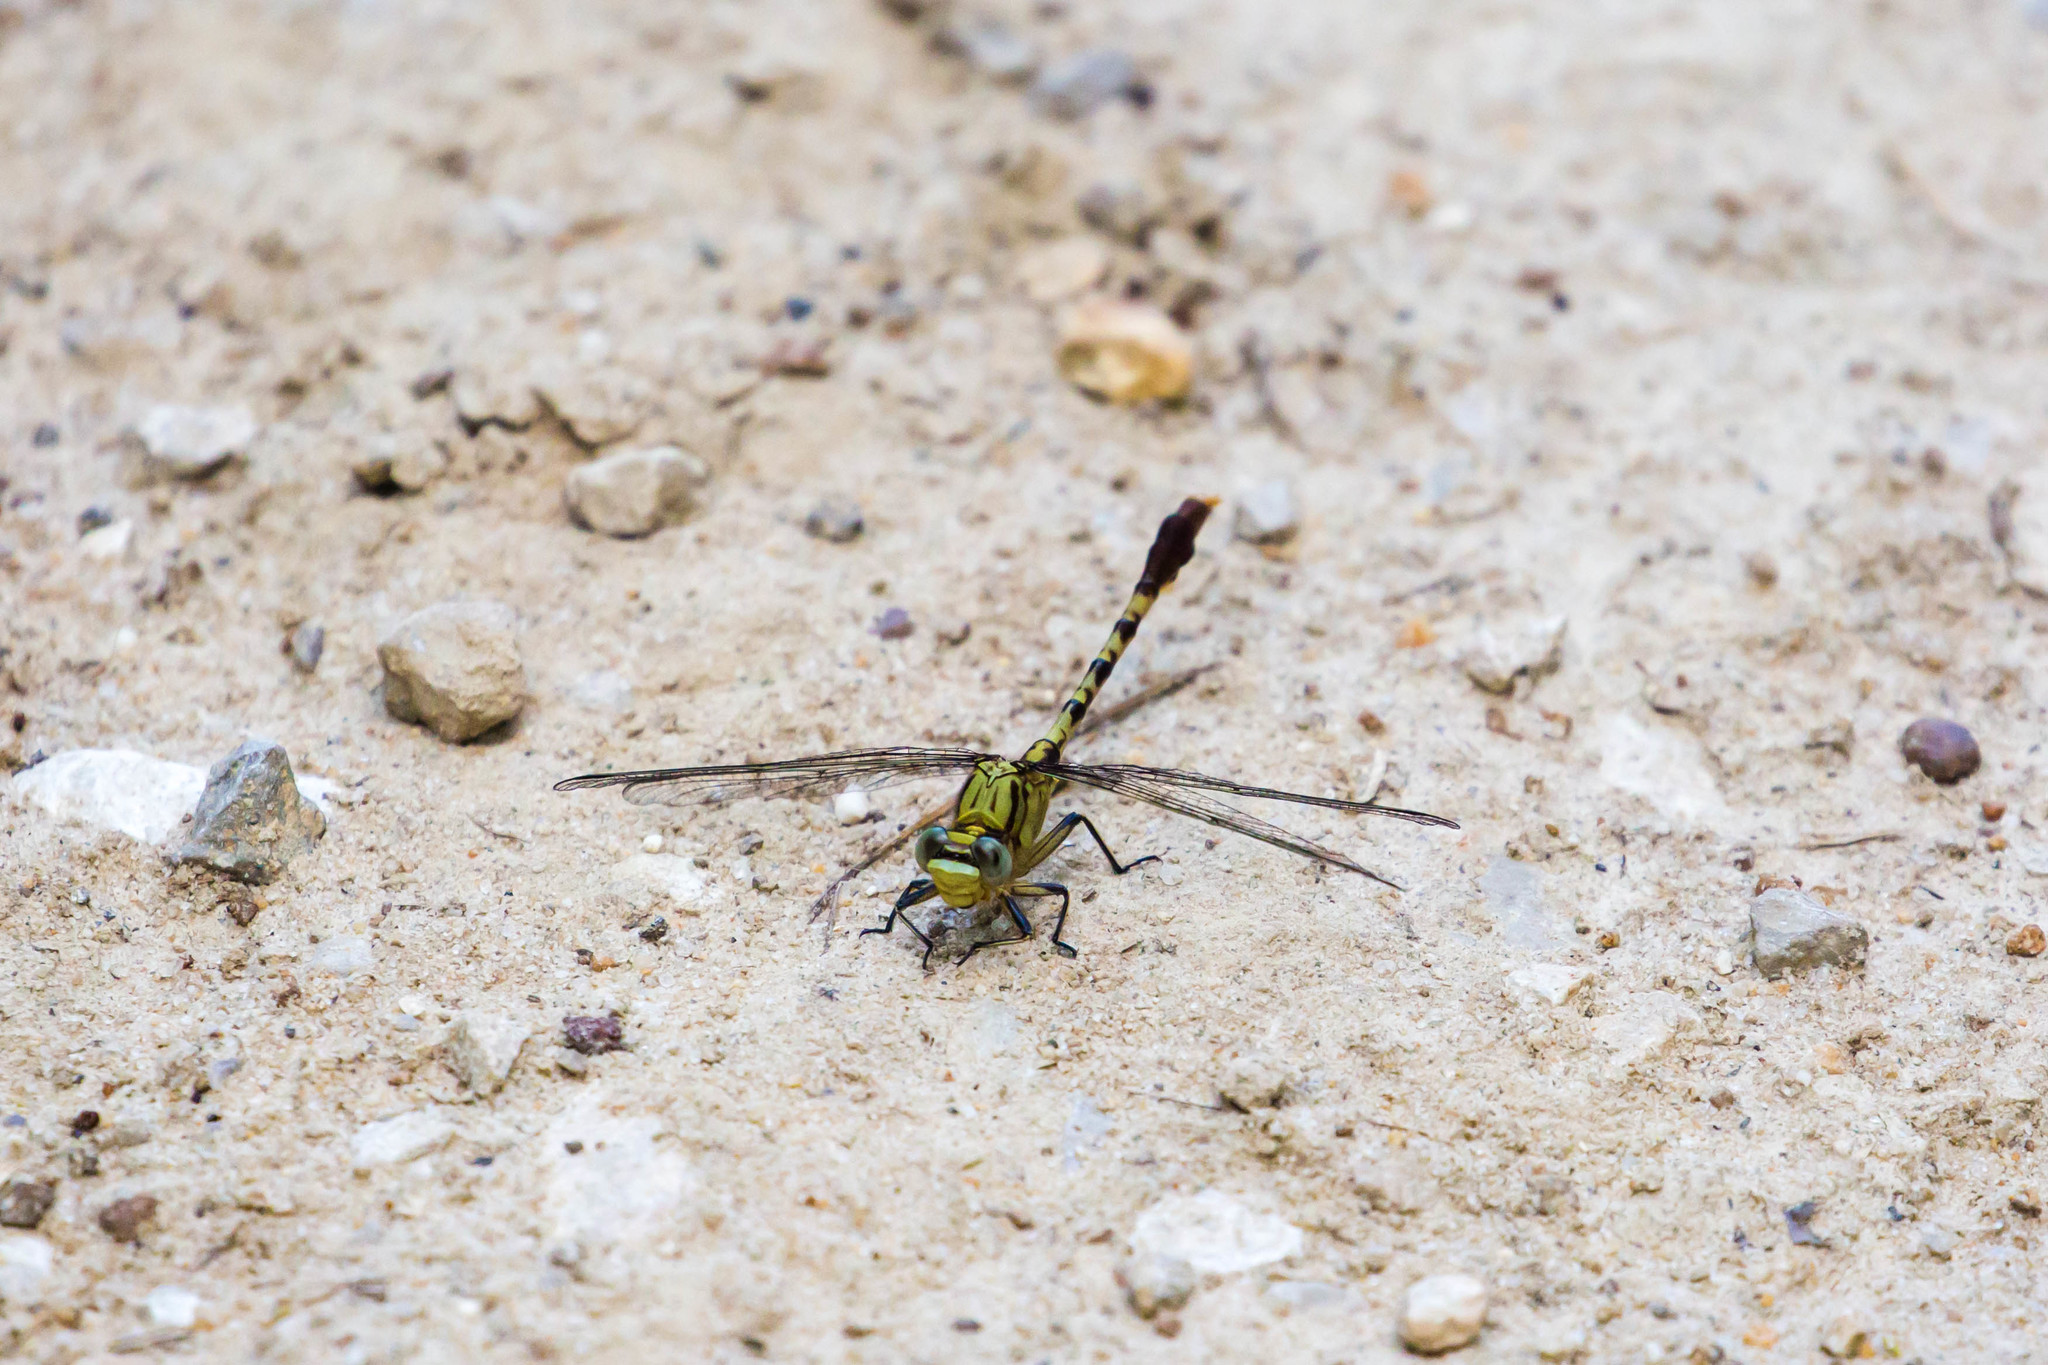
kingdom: Animalia
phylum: Arthropoda
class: Insecta
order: Odonata
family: Gomphidae
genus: Arigomphus
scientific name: Arigomphus submedianus
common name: Jade clubtail
